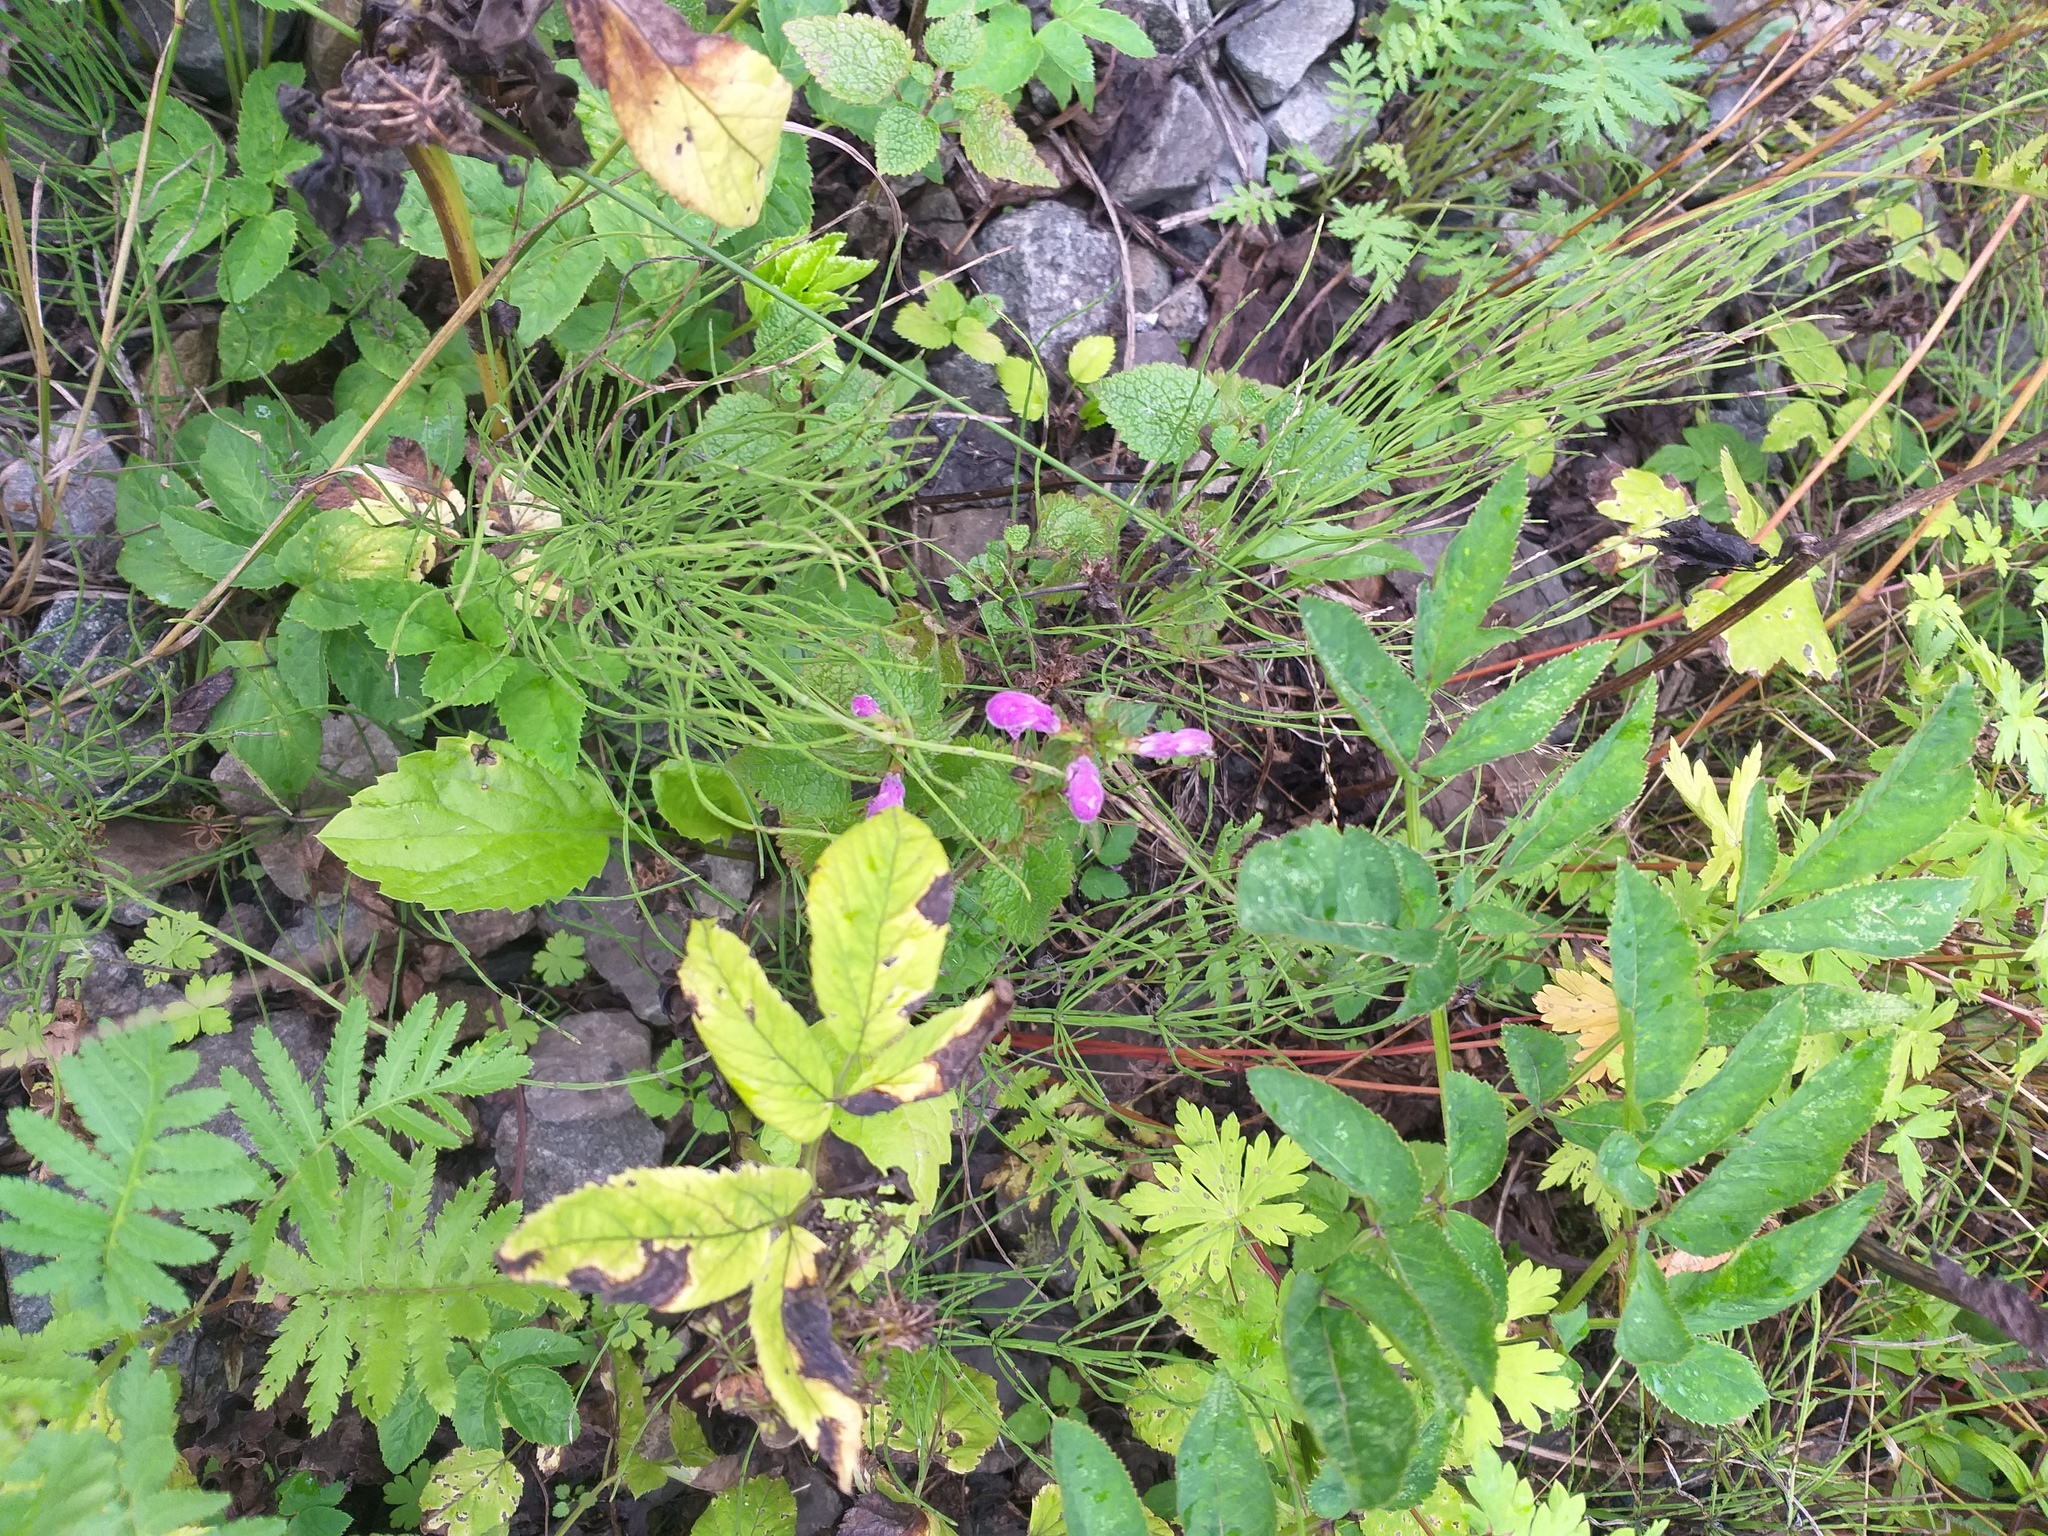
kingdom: Plantae
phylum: Tracheophyta
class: Magnoliopsida
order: Lamiales
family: Lamiaceae
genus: Lamium
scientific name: Lamium maculatum
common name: Spotted dead-nettle
